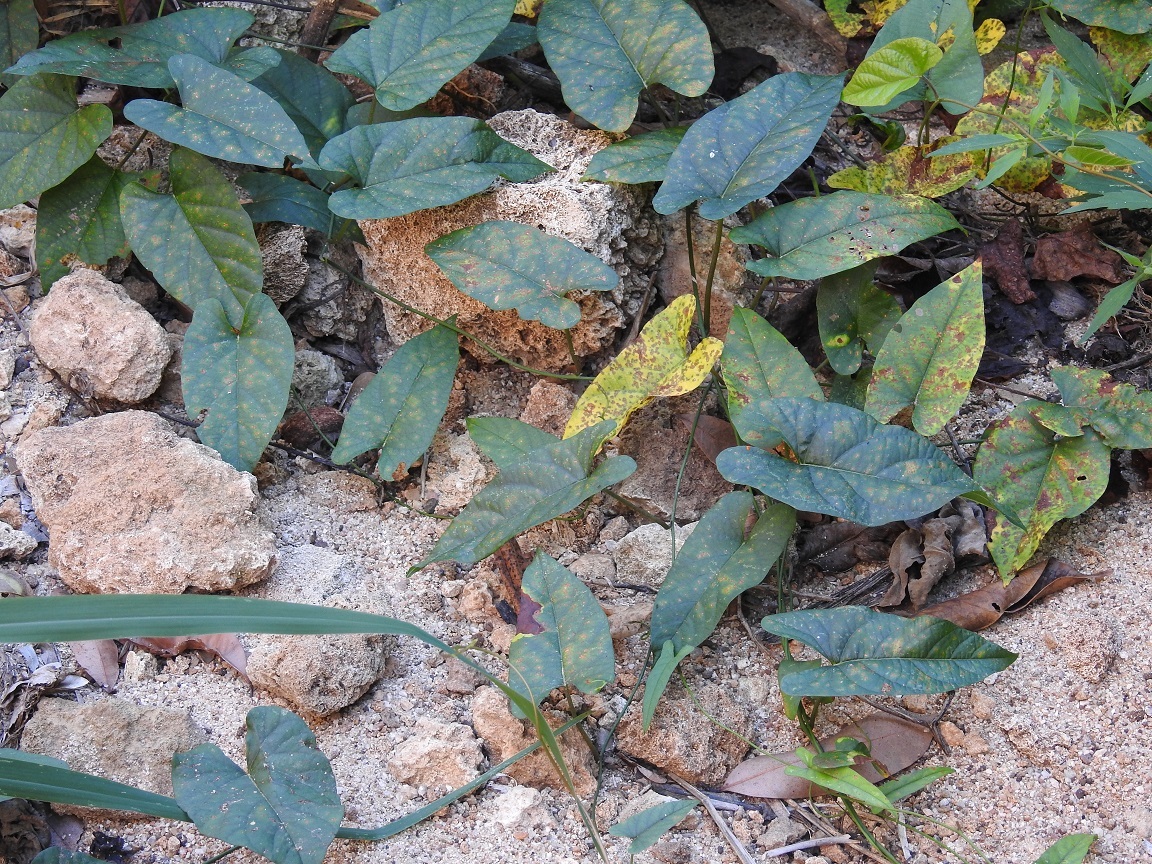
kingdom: Plantae
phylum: Tracheophyta
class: Magnoliopsida
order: Solanales
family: Convolvulaceae
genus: Camonea
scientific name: Camonea umbellata
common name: Hogvine
